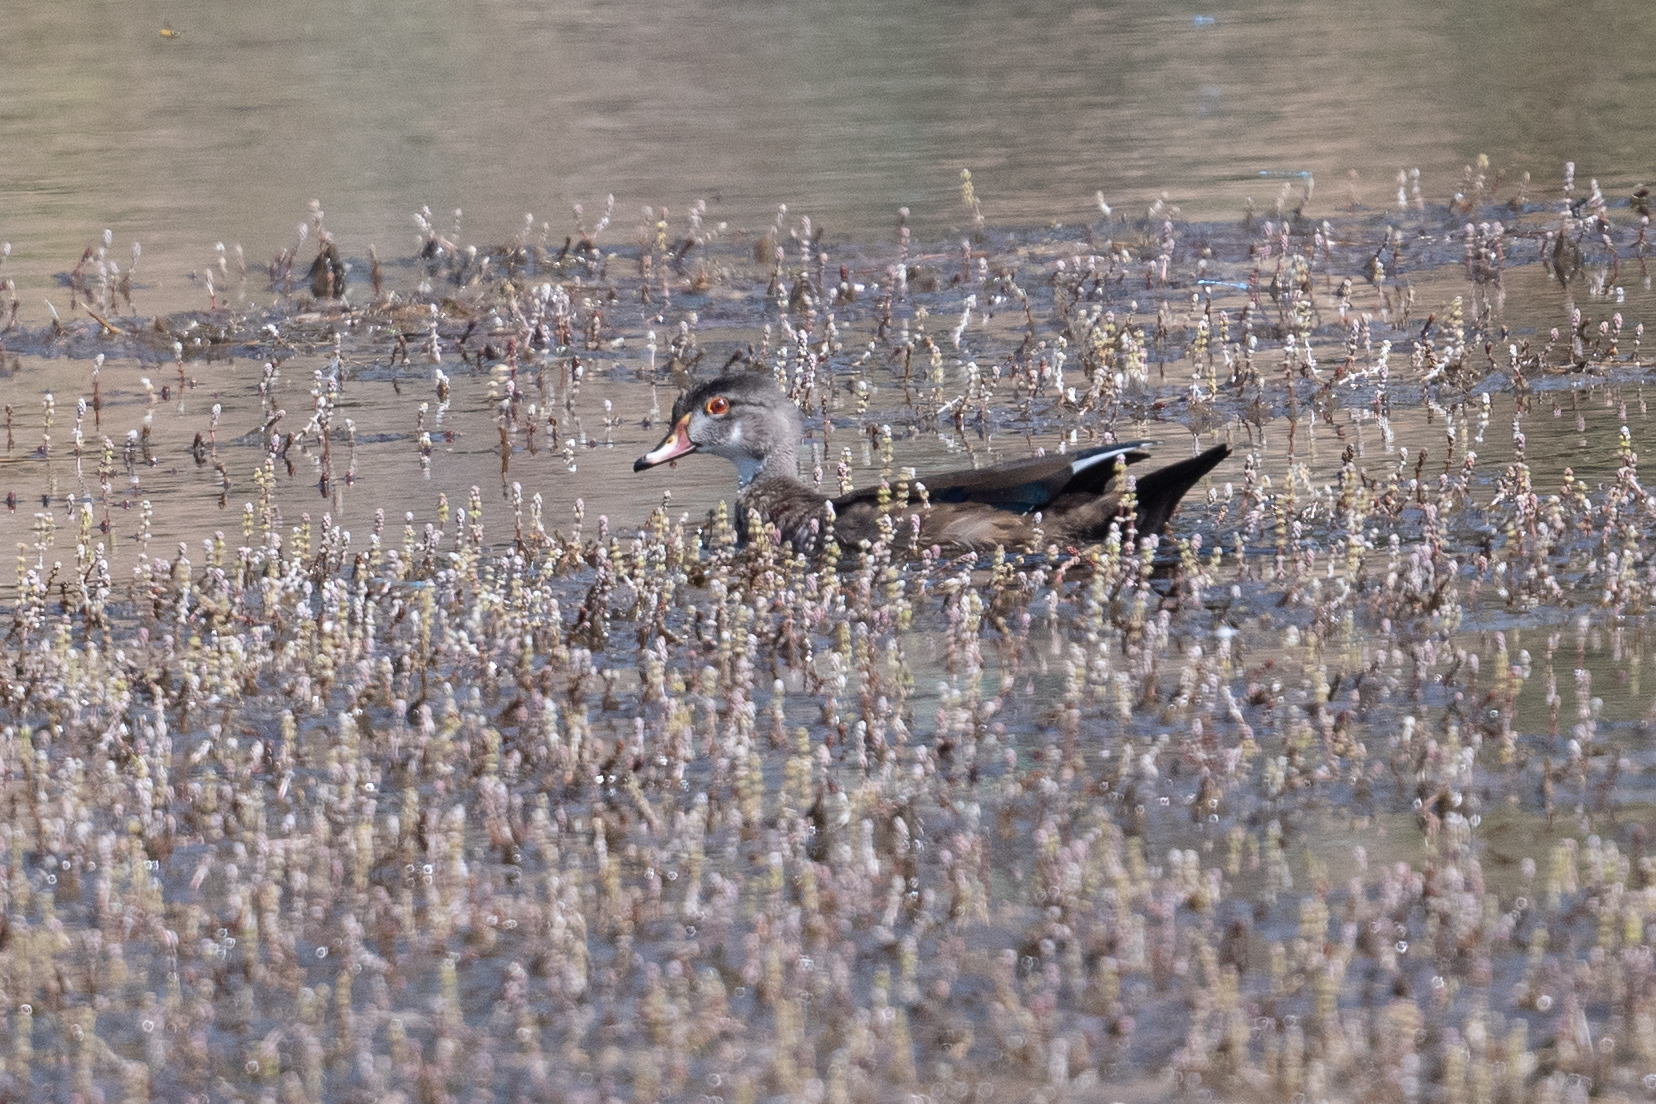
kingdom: Animalia
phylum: Chordata
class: Aves
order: Anseriformes
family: Anatidae
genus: Aix
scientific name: Aix sponsa
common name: Wood duck
